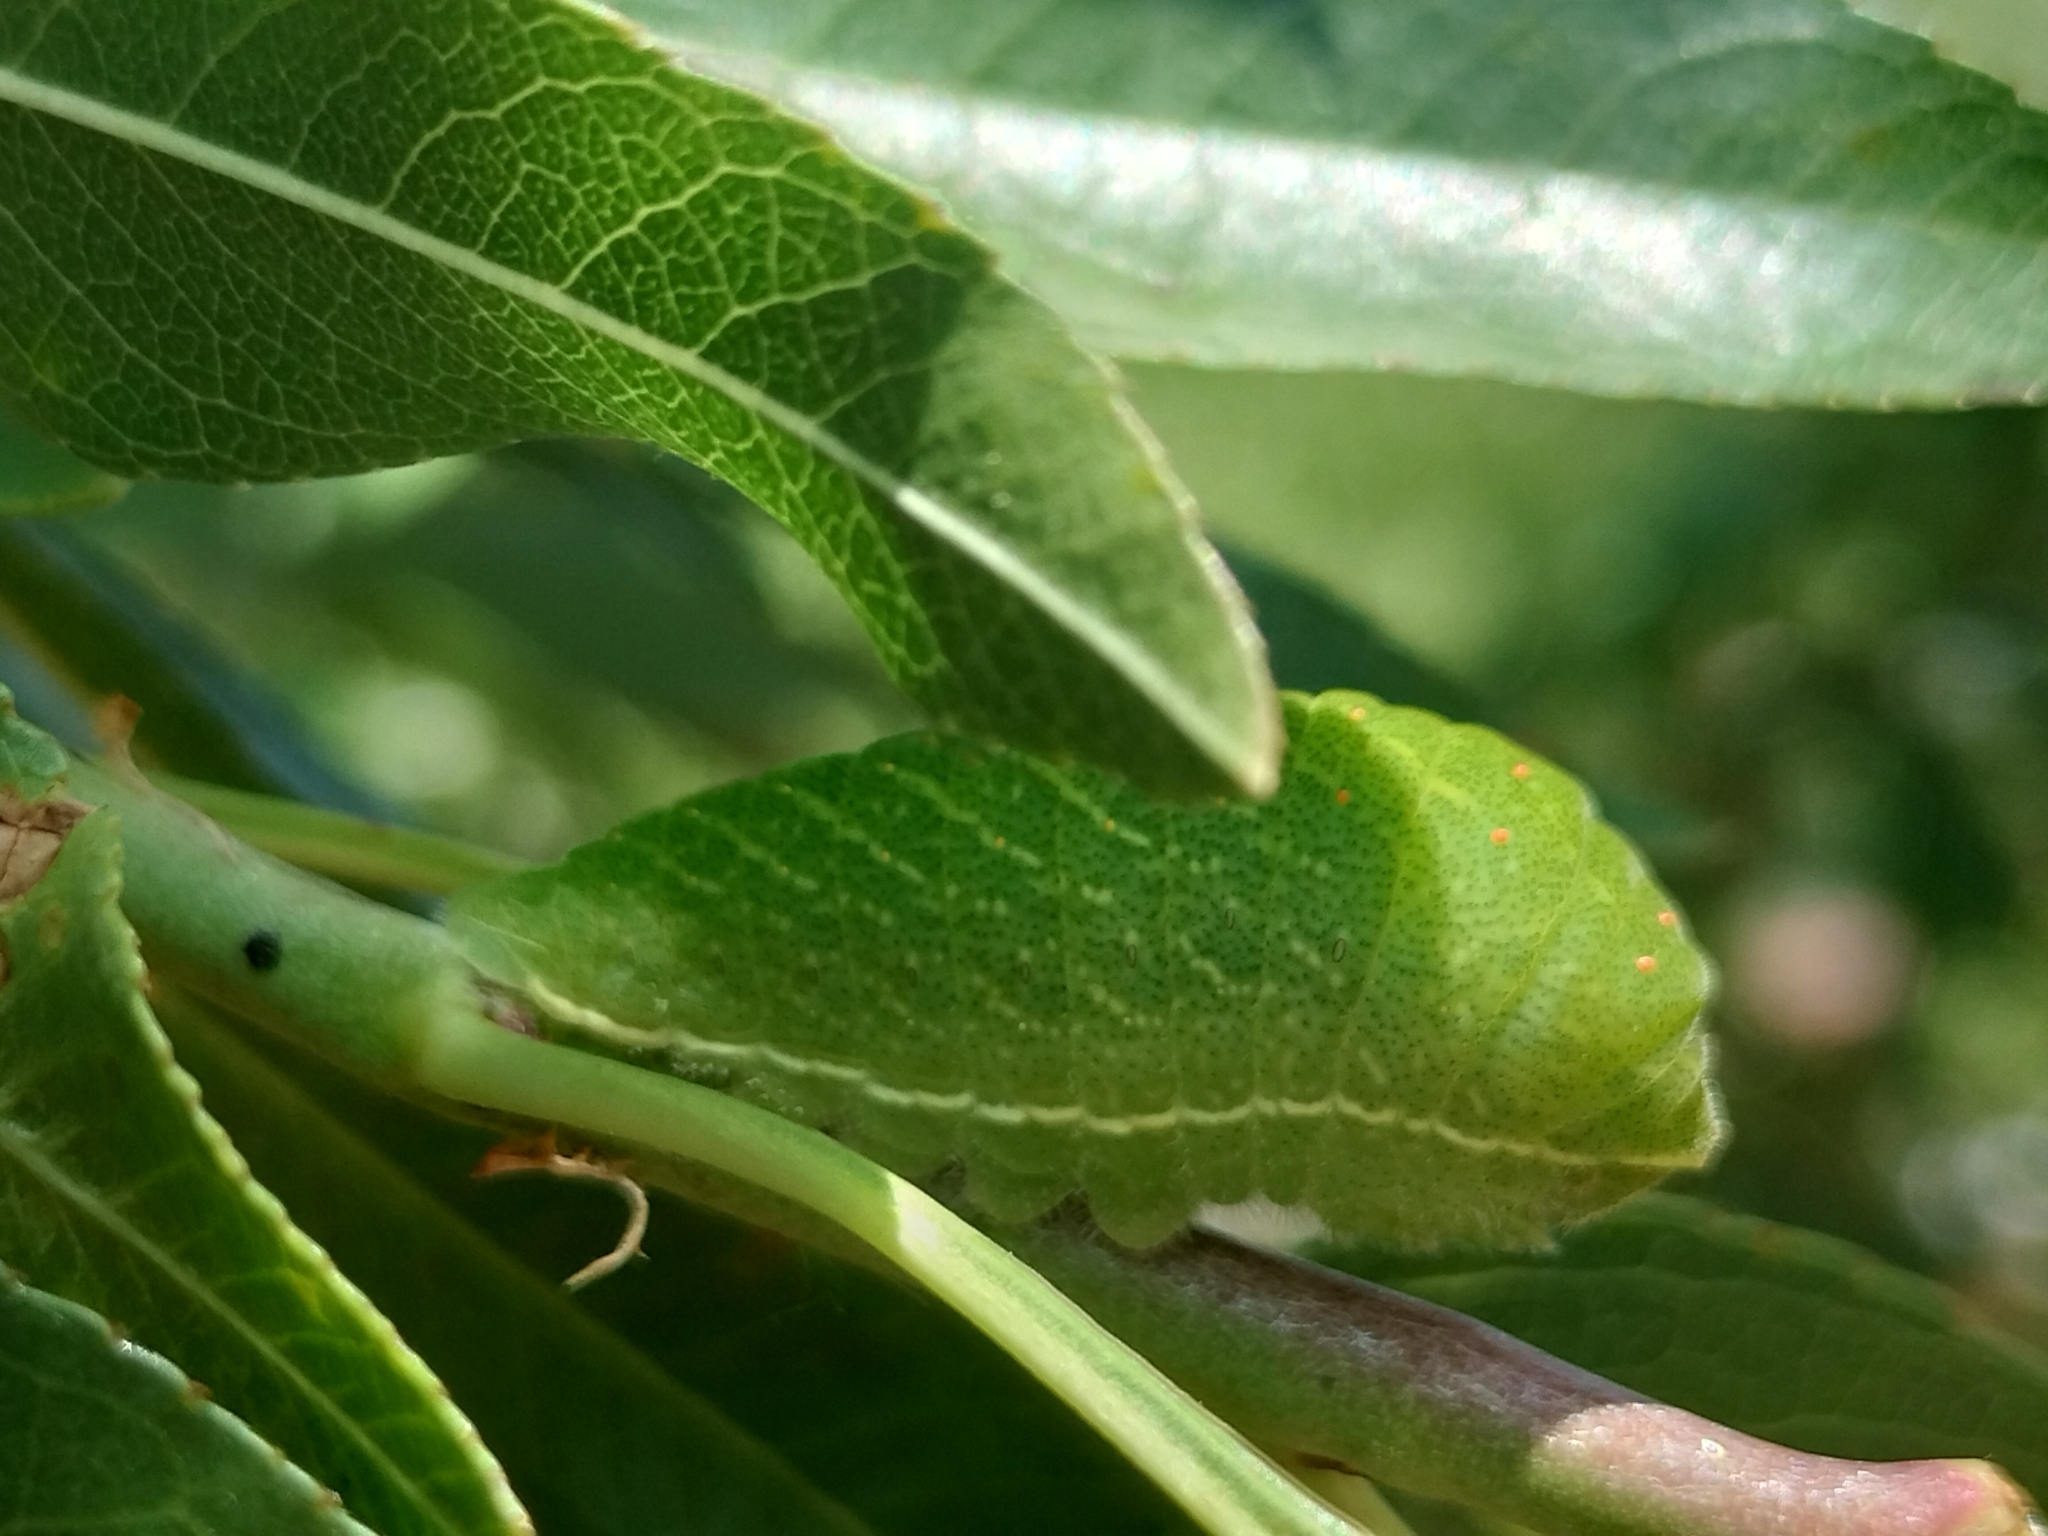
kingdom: Animalia
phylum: Arthropoda
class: Insecta
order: Lepidoptera
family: Papilionidae
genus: Iphiclides
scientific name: Iphiclides feisthamelii
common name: Iberian scarce swallowtail
